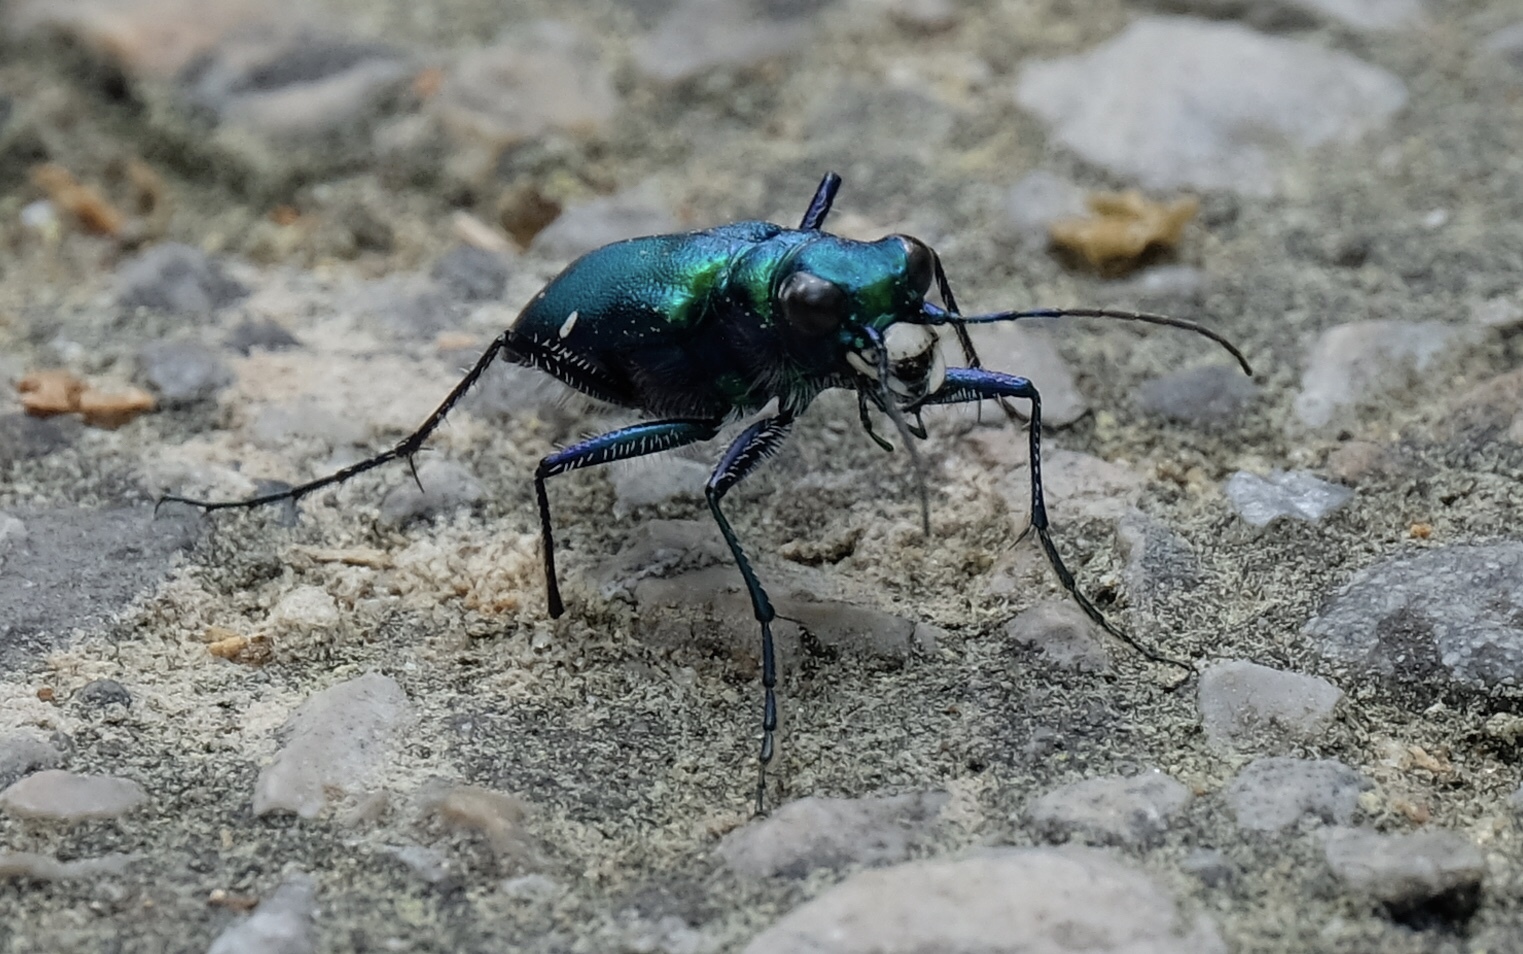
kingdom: Animalia
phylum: Arthropoda
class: Insecta
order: Coleoptera
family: Carabidae
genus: Cicindela
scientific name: Cicindela sexguttata
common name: Six-spotted tiger beetle
